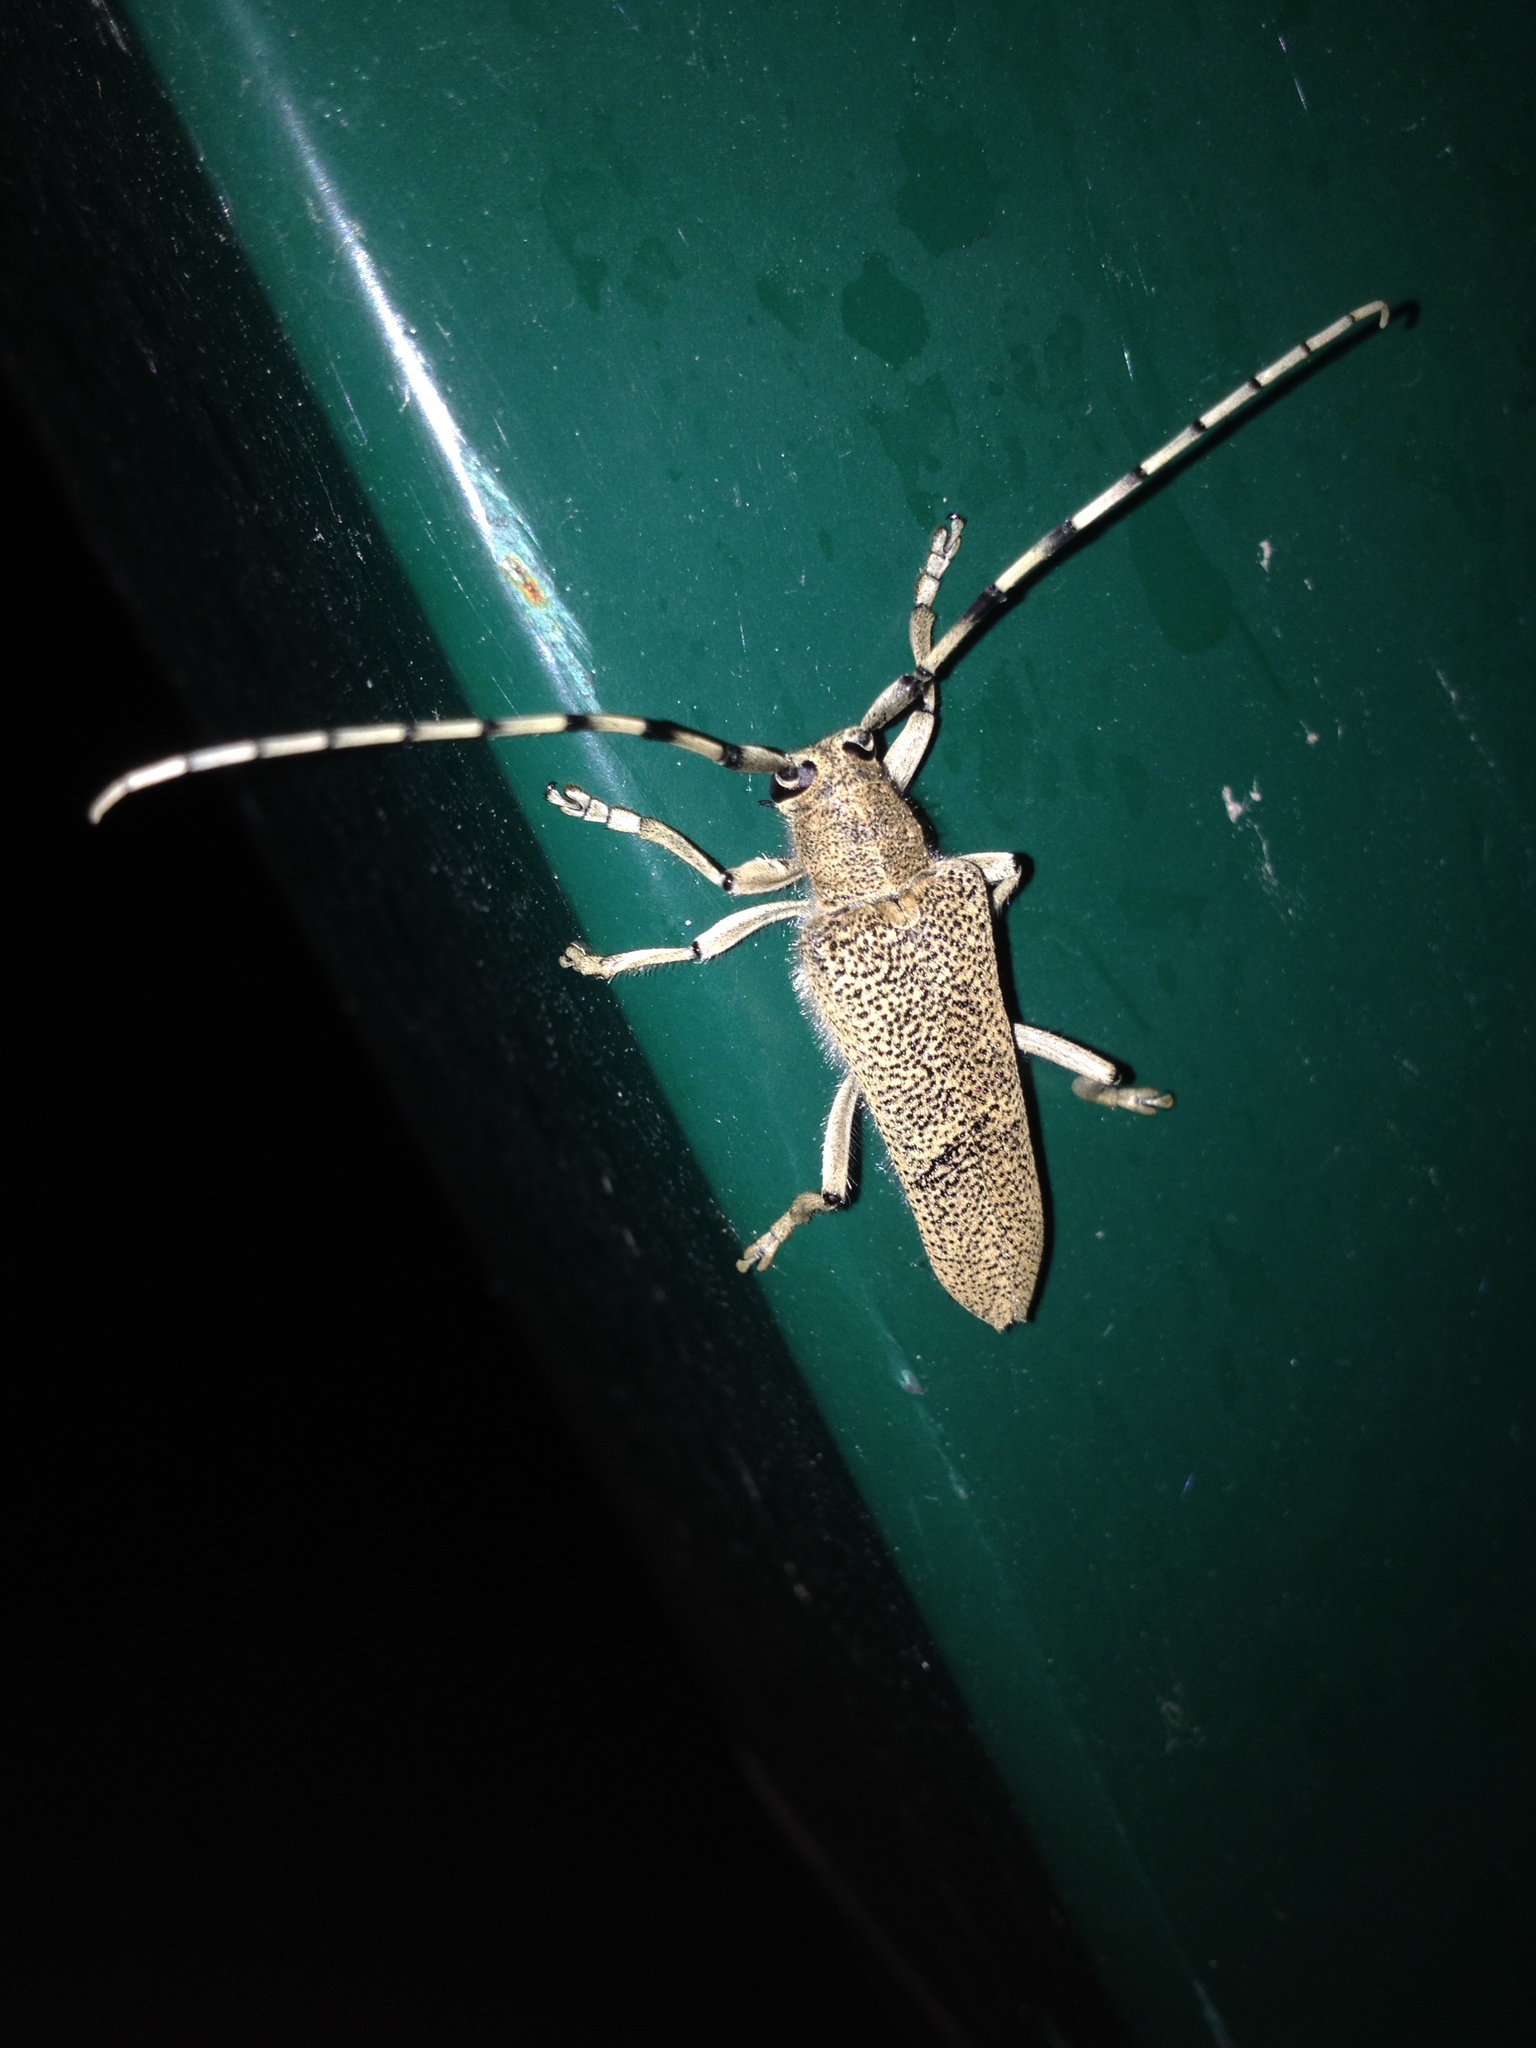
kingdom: Animalia
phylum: Arthropoda
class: Insecta
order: Coleoptera
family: Cerambycidae
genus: Saperda
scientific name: Saperda carcharias
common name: Poplar borer
